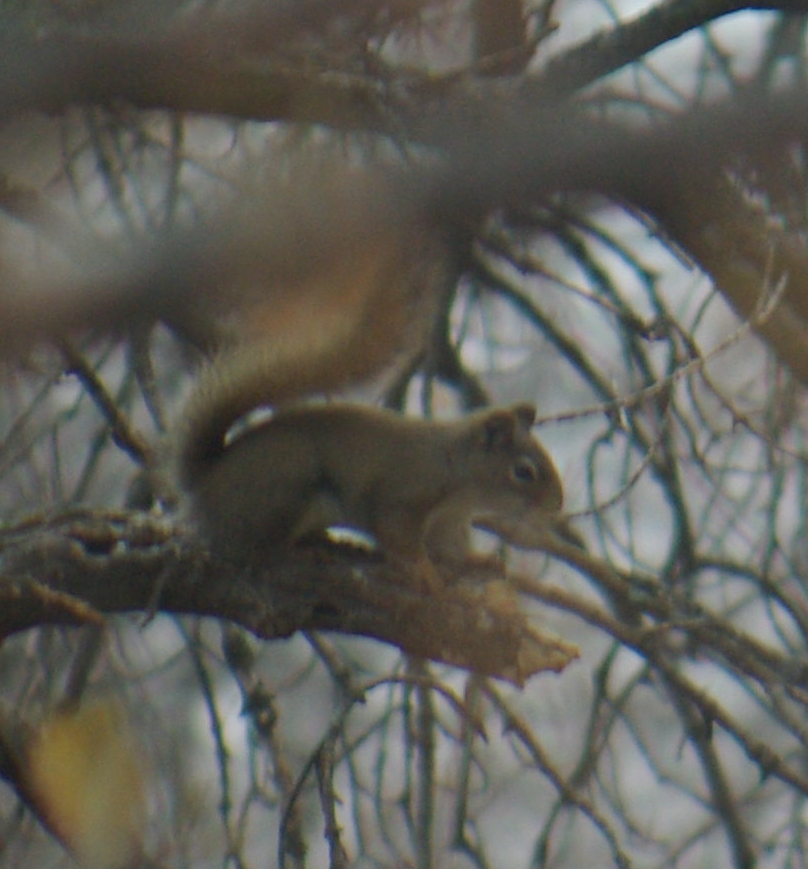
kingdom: Animalia
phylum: Chordata
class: Mammalia
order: Rodentia
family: Sciuridae
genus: Tamiasciurus
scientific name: Tamiasciurus hudsonicus
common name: Red squirrel
